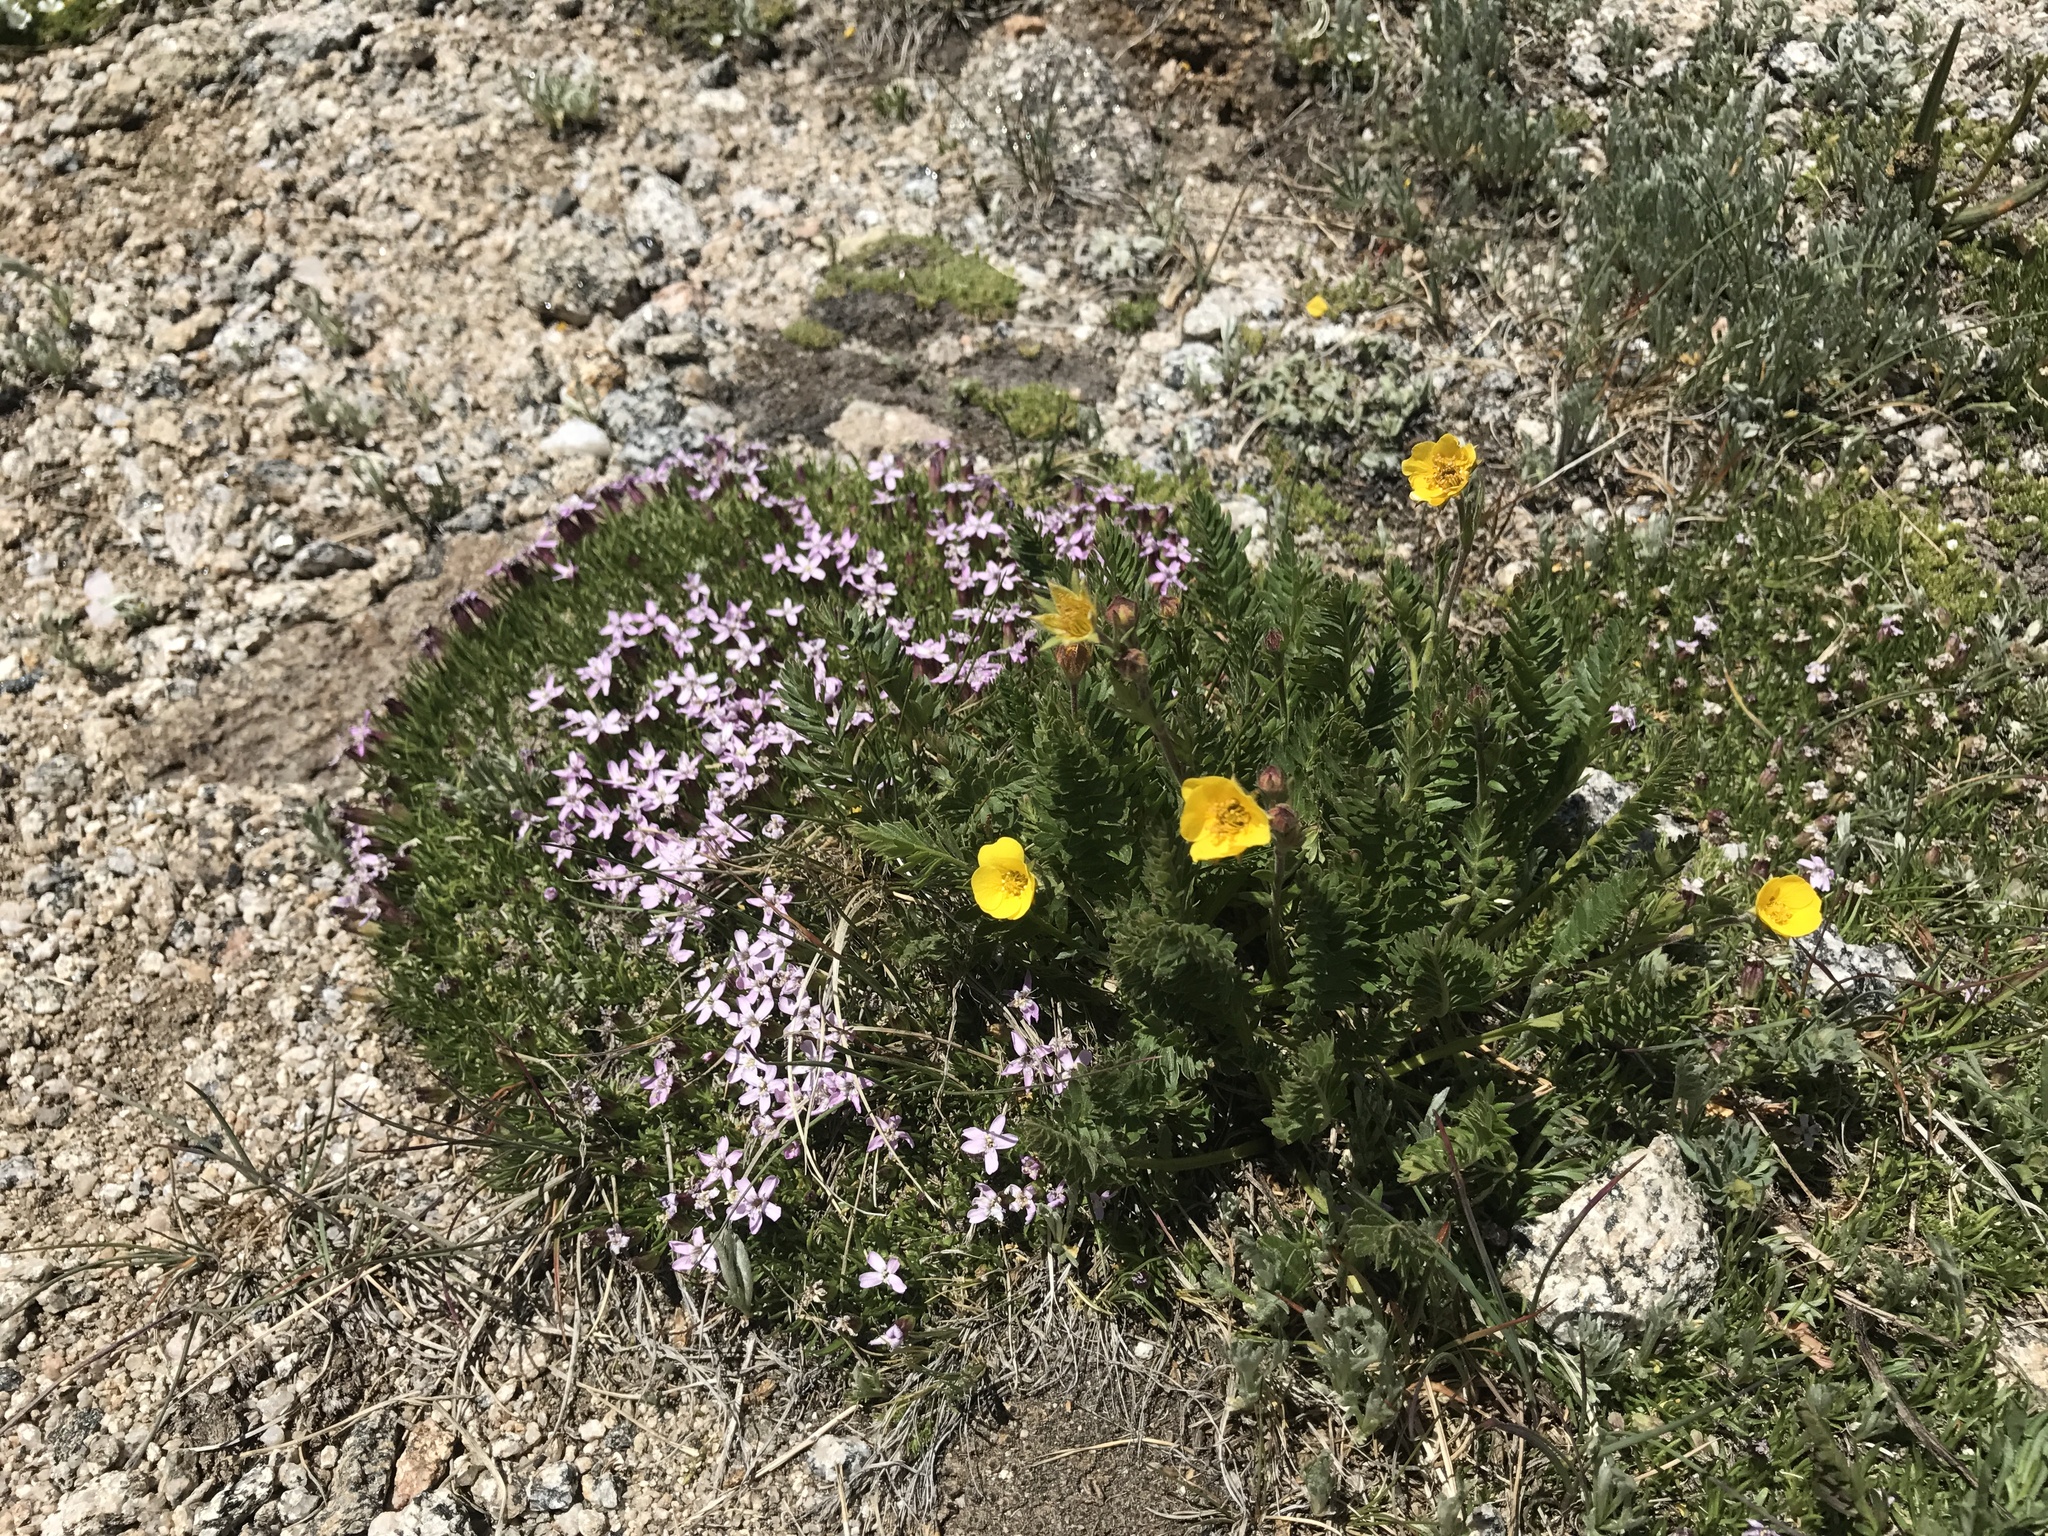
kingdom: Plantae
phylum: Tracheophyta
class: Magnoliopsida
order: Rosales
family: Rosaceae
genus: Geum
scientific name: Geum rossii
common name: Alpine avens
